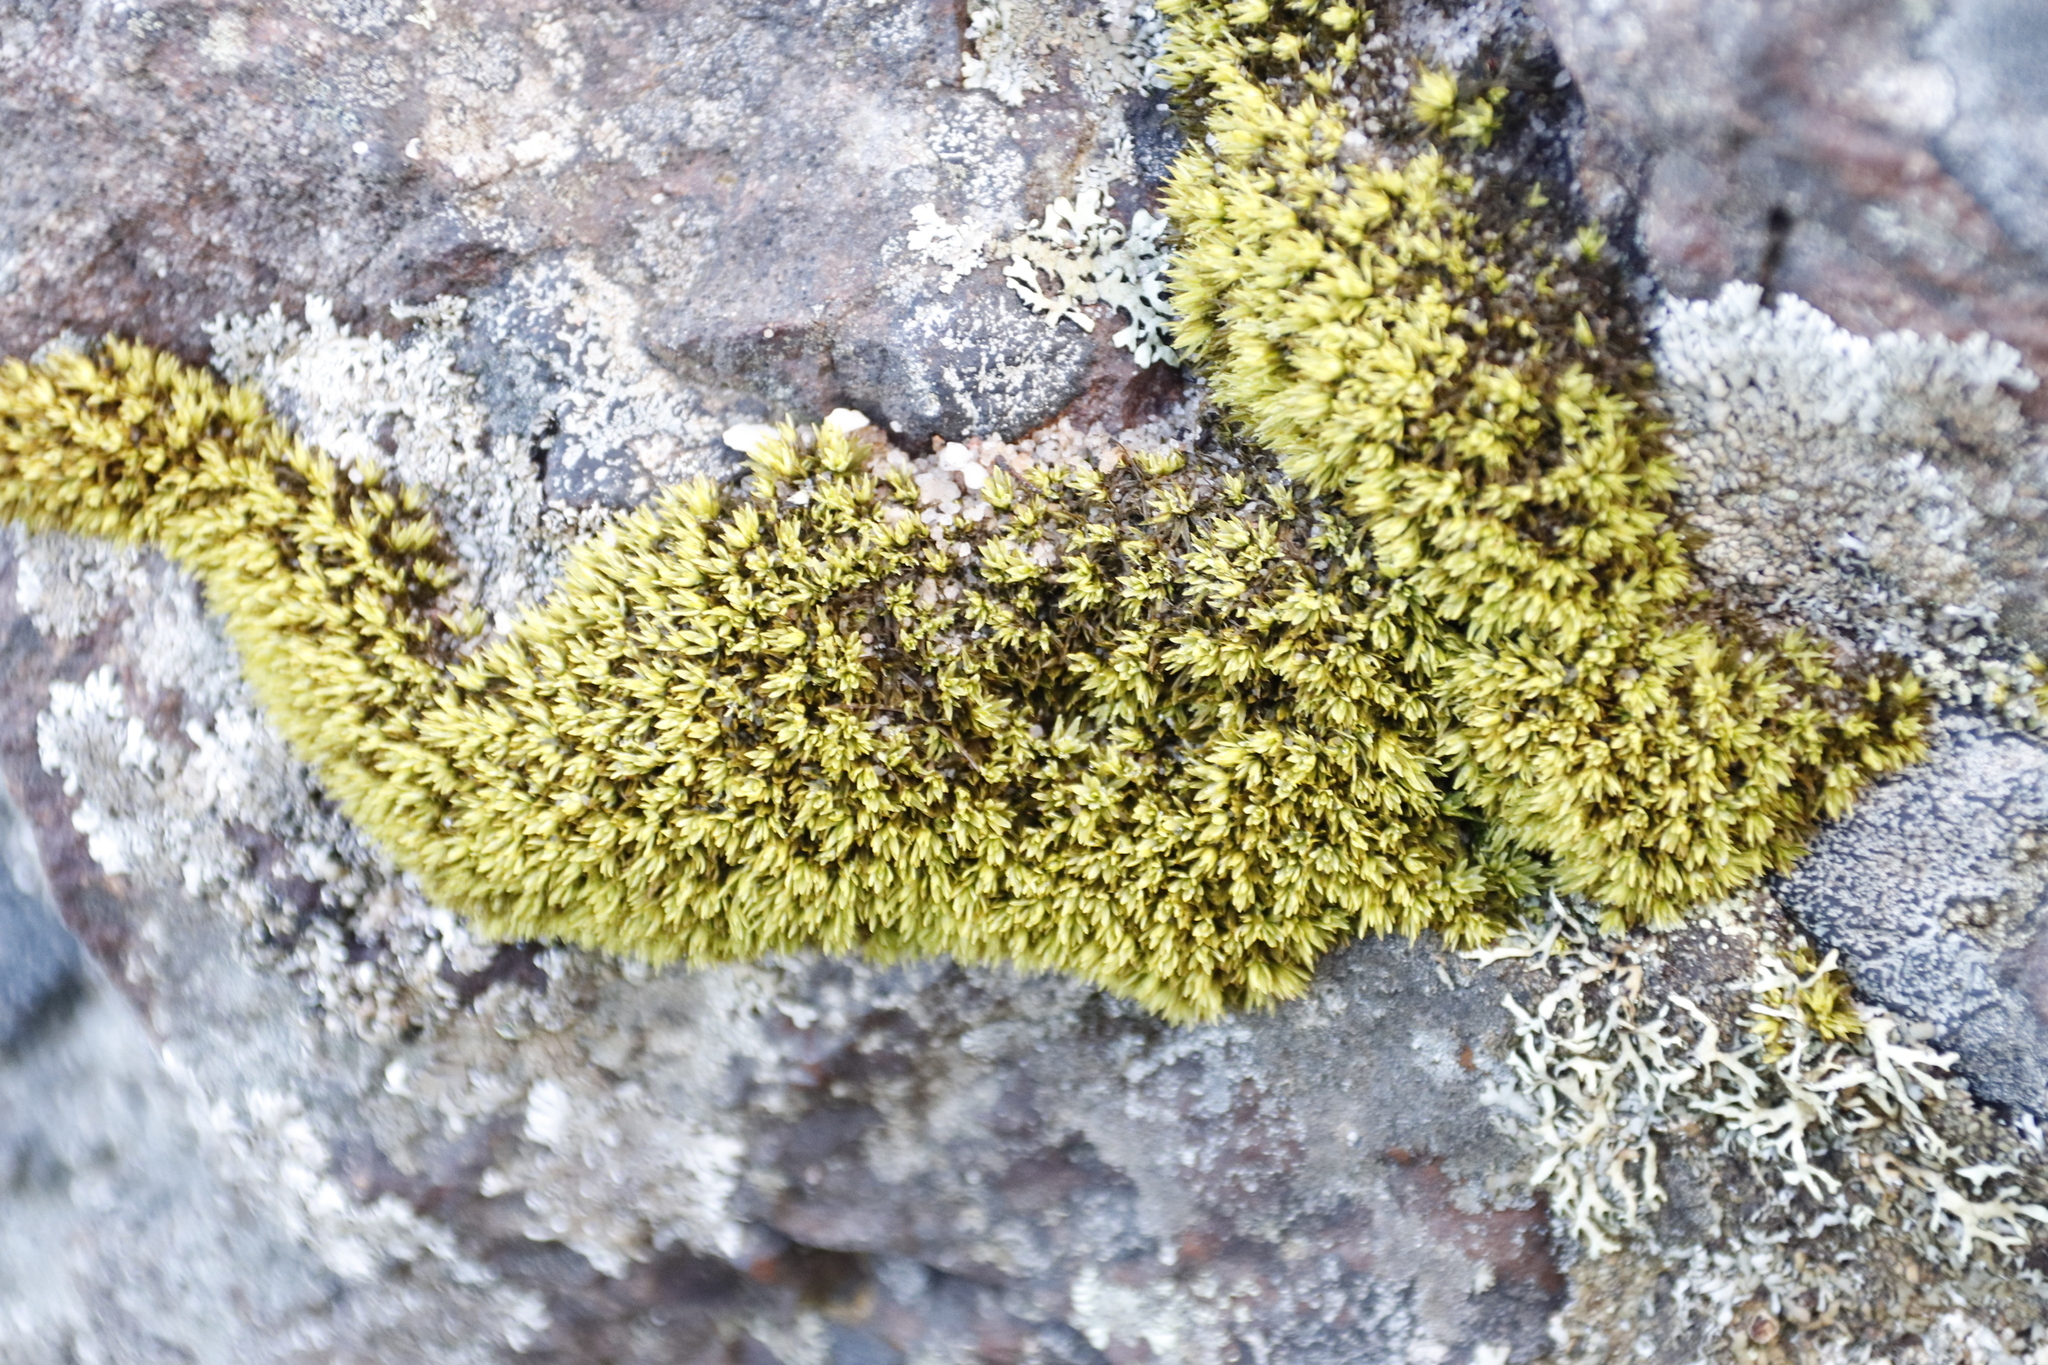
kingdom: Plantae
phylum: Bryophyta
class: Bryopsida
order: Dicranales
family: Hypodontiaceae
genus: Hypodontium
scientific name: Hypodontium pomiforme
